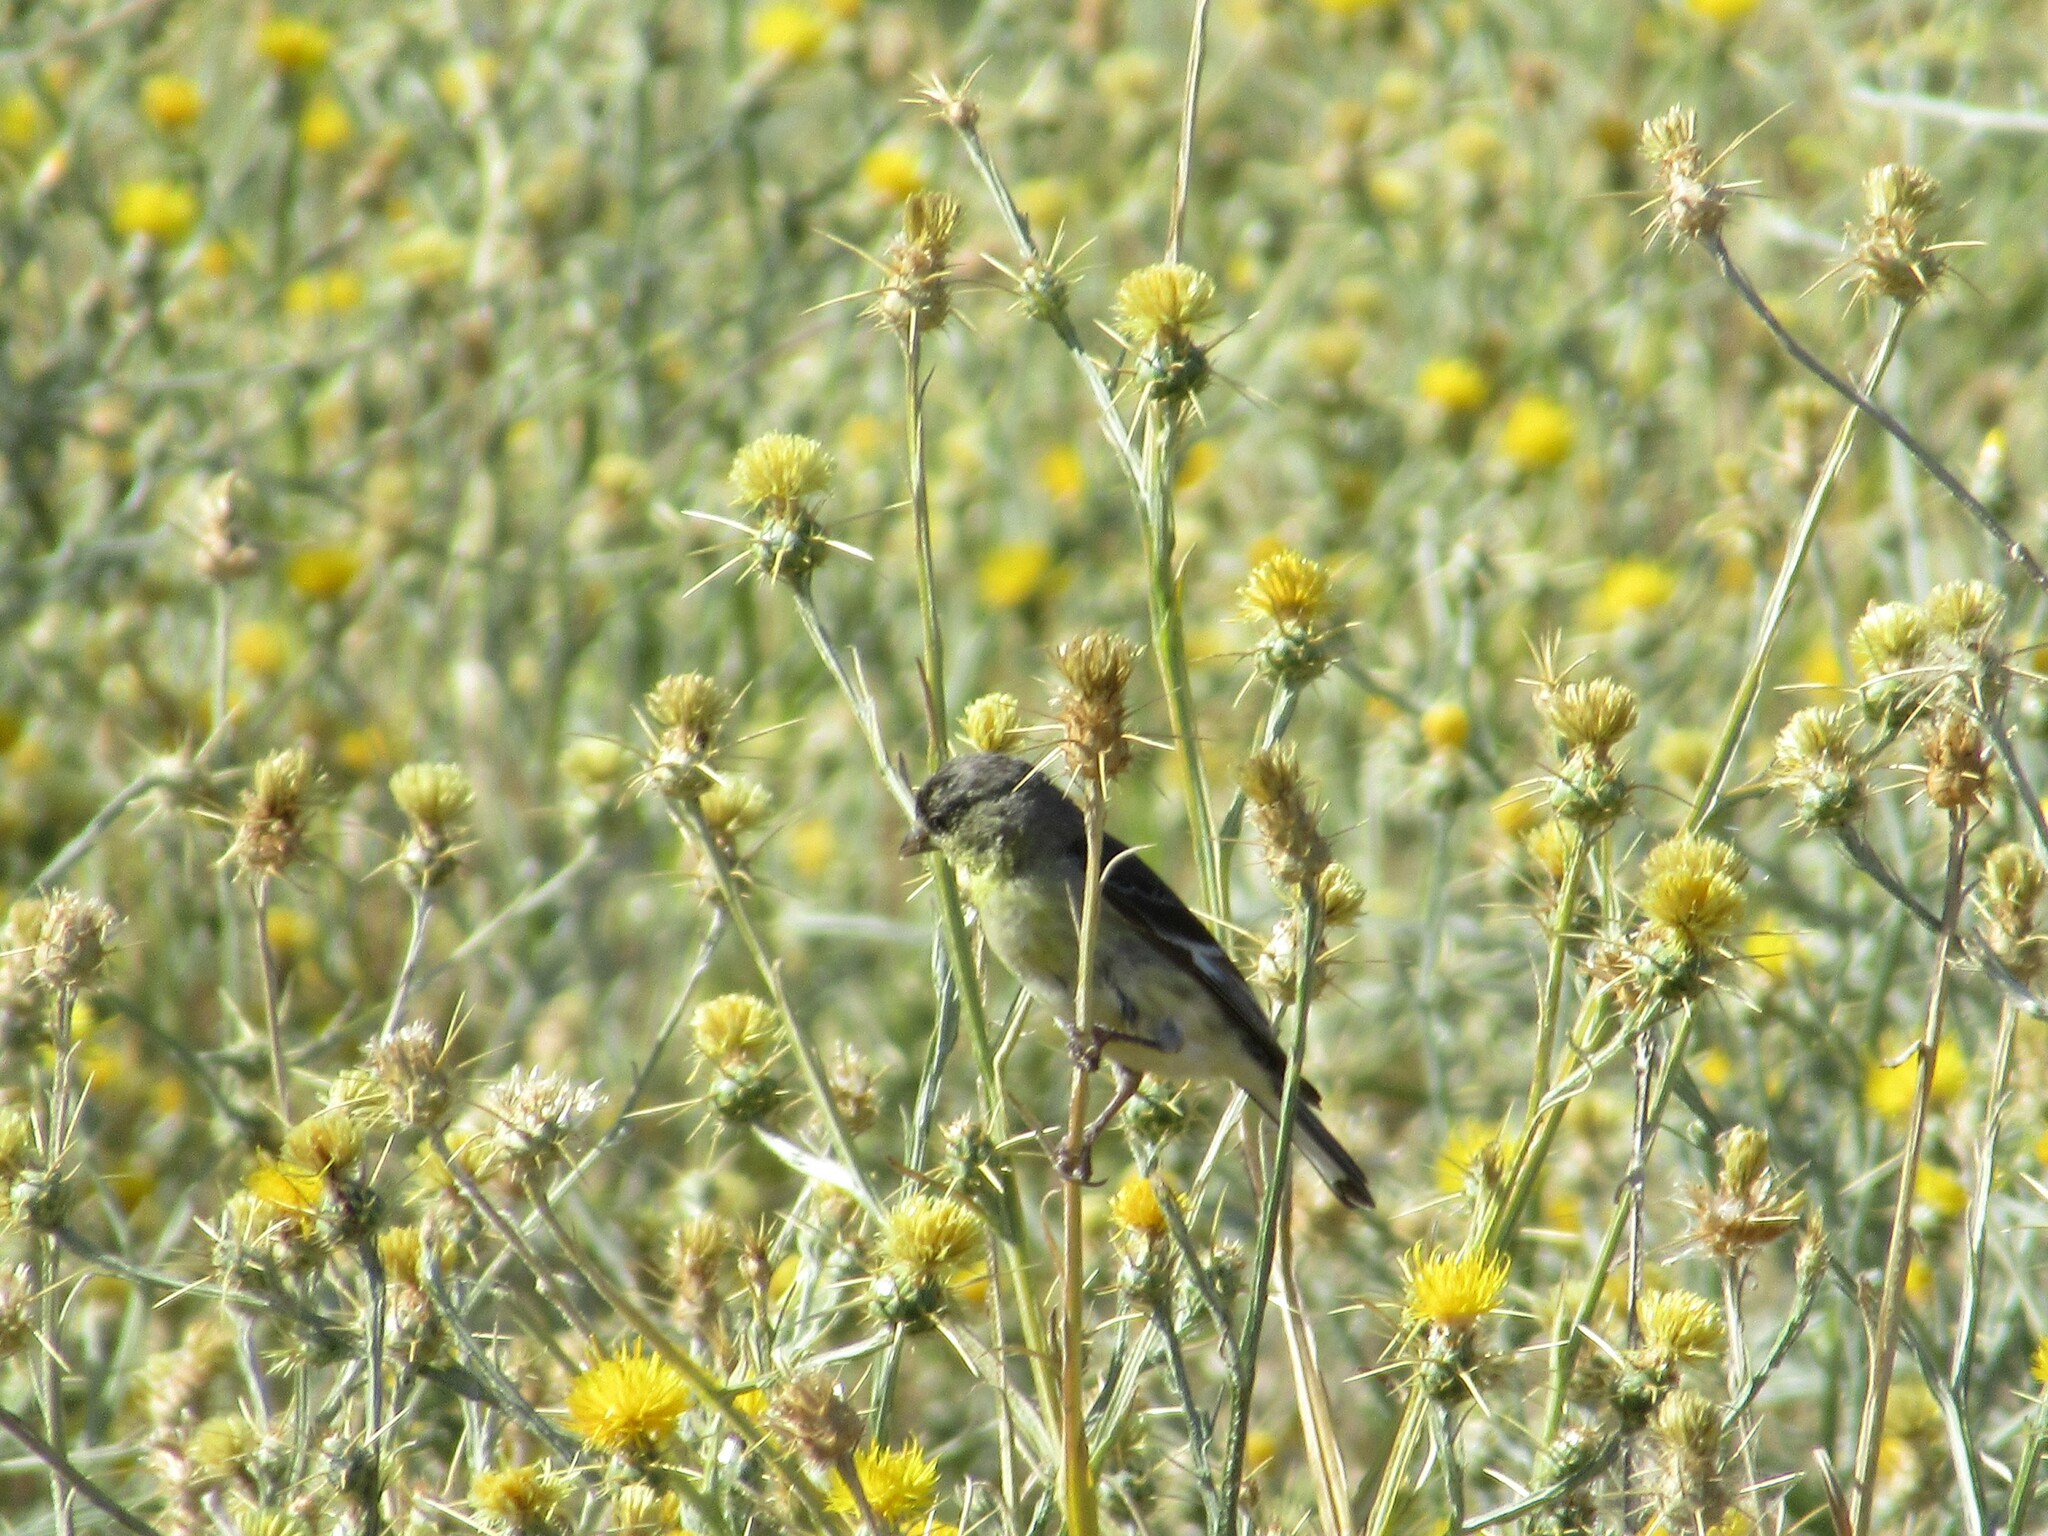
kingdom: Animalia
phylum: Chordata
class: Aves
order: Passeriformes
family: Fringillidae
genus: Spinus
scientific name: Spinus psaltria
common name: Lesser goldfinch
